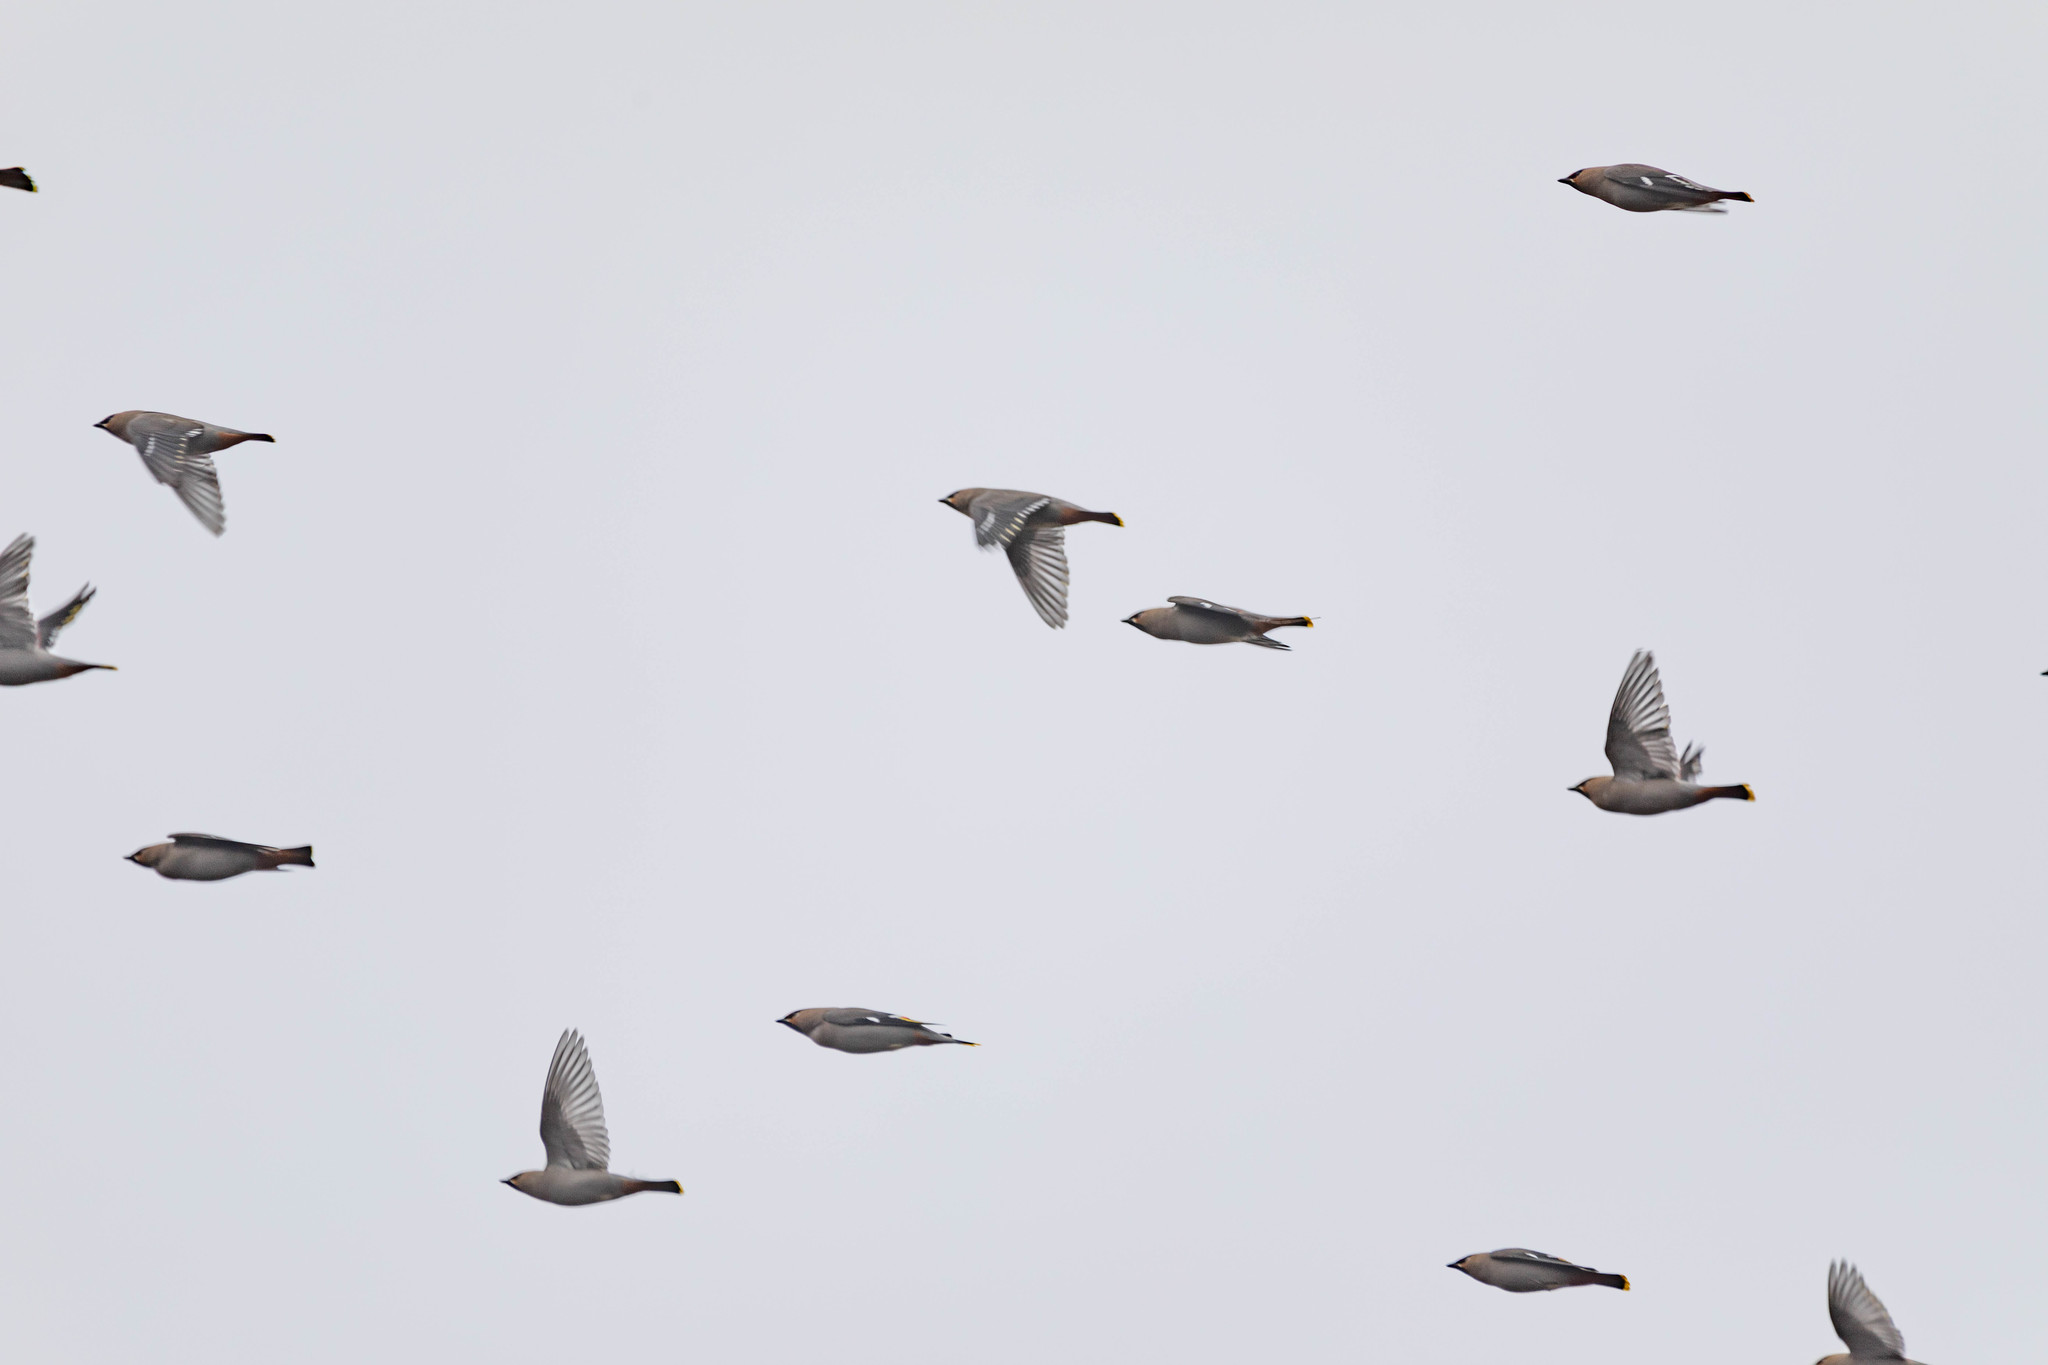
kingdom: Animalia
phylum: Chordata
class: Aves
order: Passeriformes
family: Bombycillidae
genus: Bombycilla
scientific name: Bombycilla garrulus
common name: Bohemian waxwing
